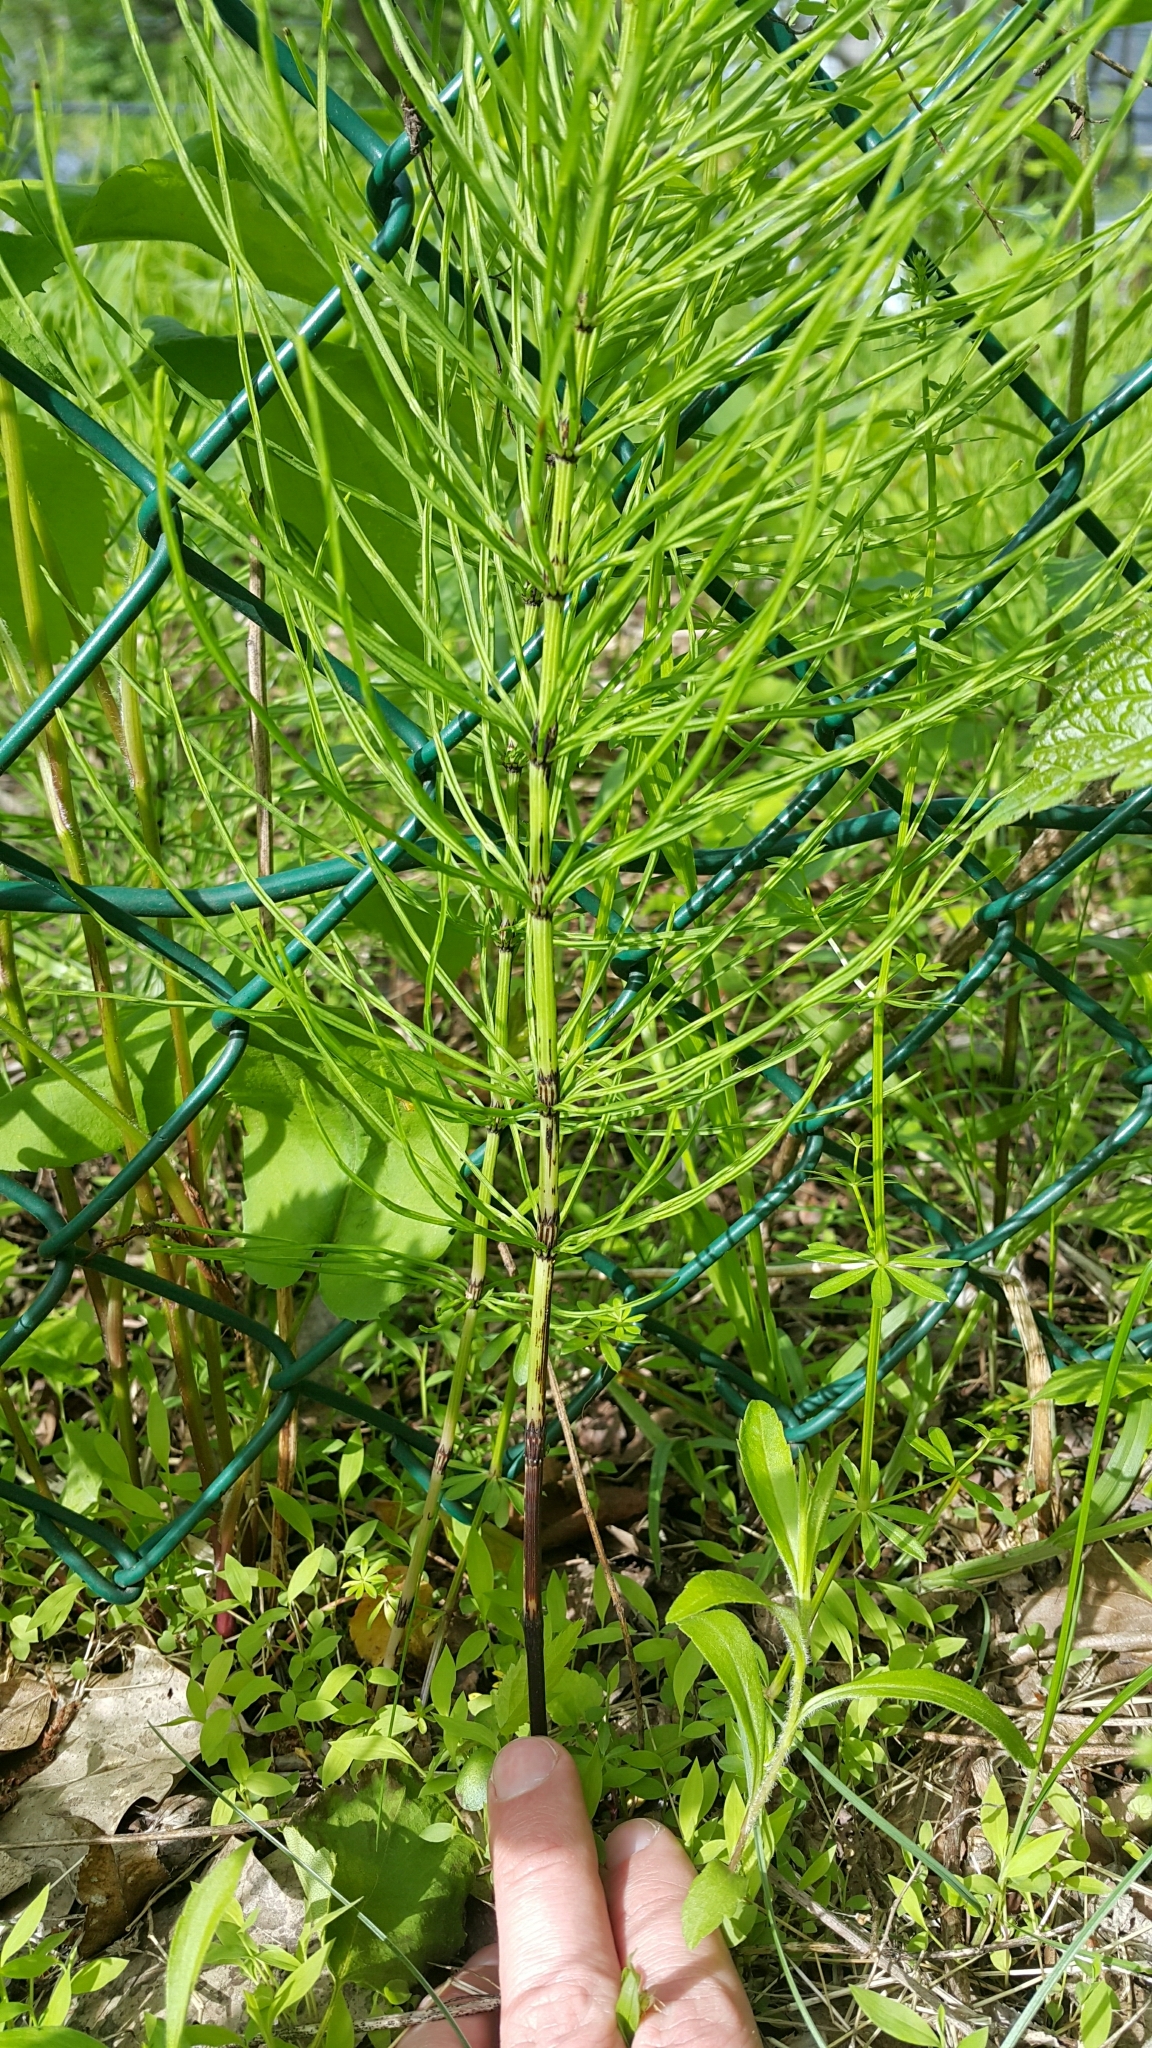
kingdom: Plantae
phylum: Tracheophyta
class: Polypodiopsida
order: Equisetales
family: Equisetaceae
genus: Equisetum
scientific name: Equisetum arvense
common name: Field horsetail
